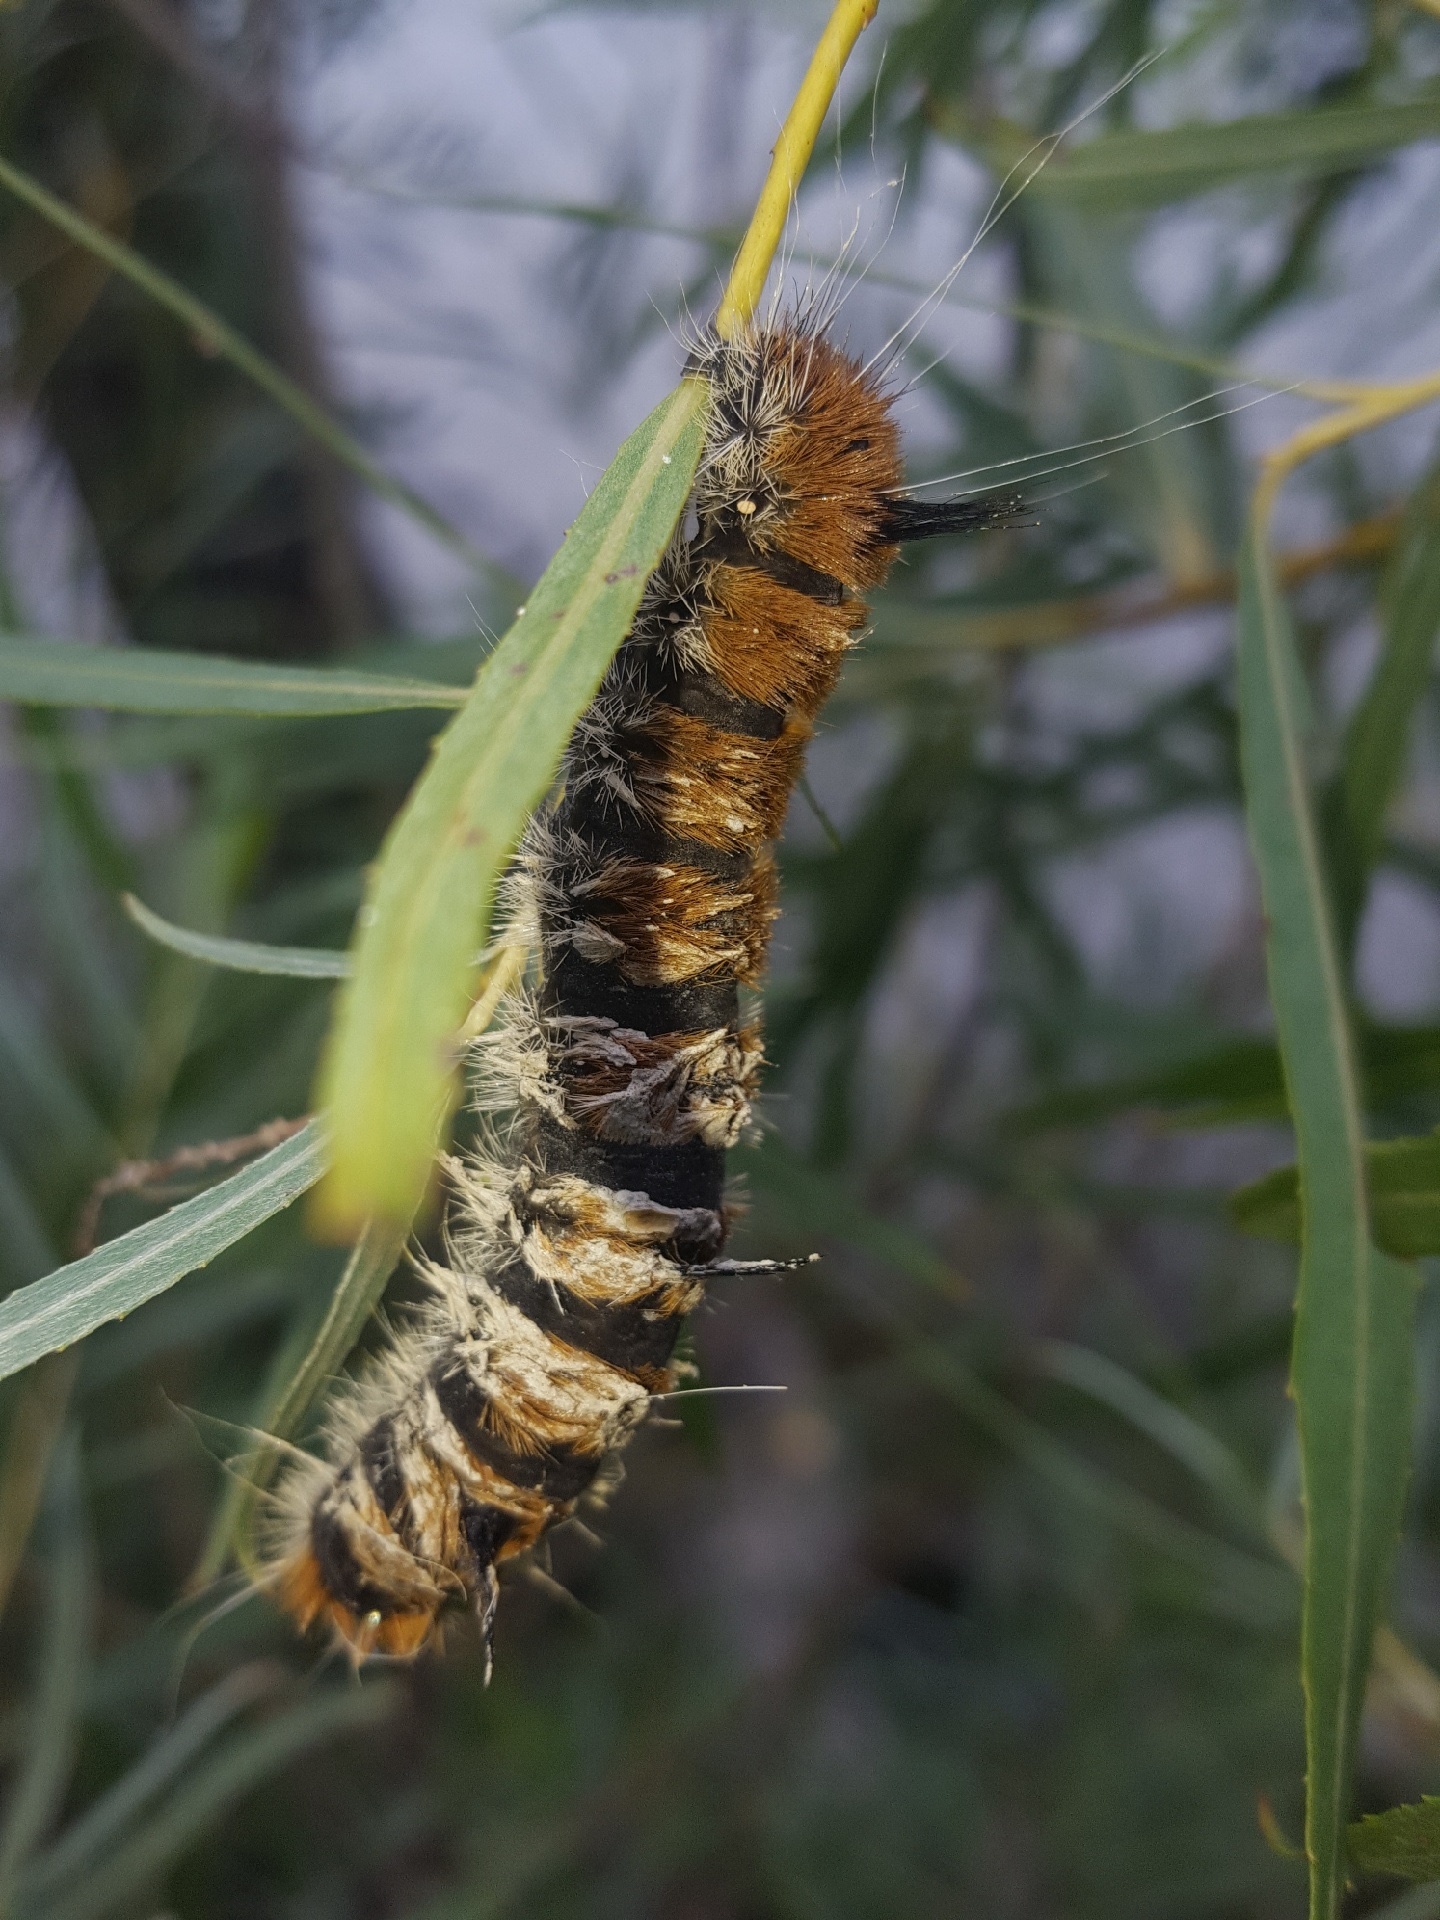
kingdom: Animalia
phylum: Arthropoda
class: Insecta
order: Lepidoptera
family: Noctuidae
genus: Acronicta
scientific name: Acronicta insita
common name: Large gray dagger
